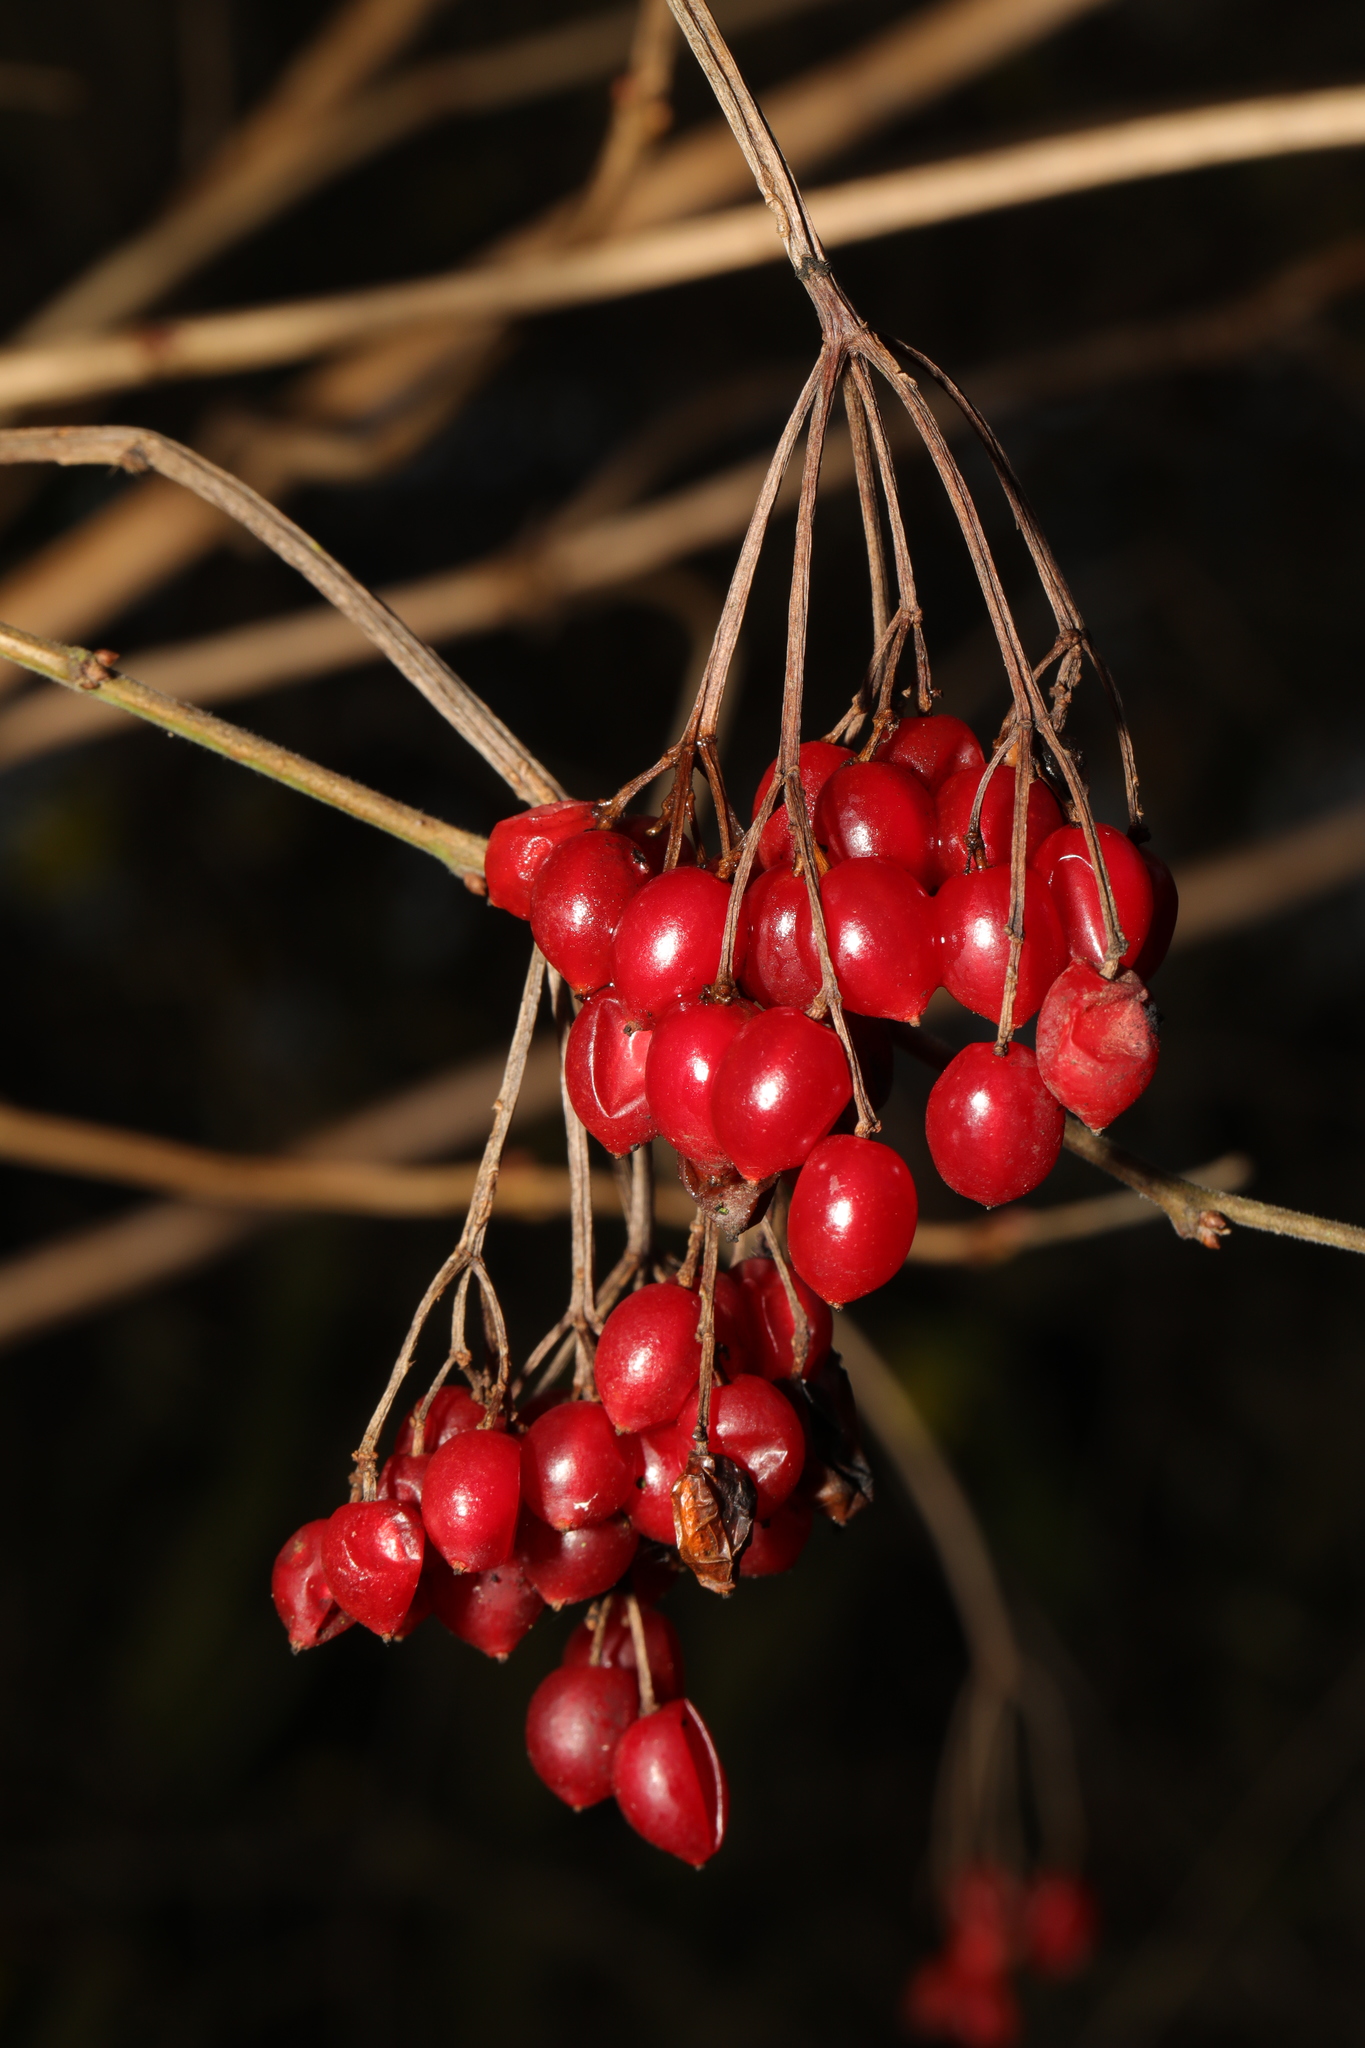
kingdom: Plantae
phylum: Tracheophyta
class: Magnoliopsida
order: Dipsacales
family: Viburnaceae
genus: Viburnum
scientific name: Viburnum opulus
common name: Guelder-rose
